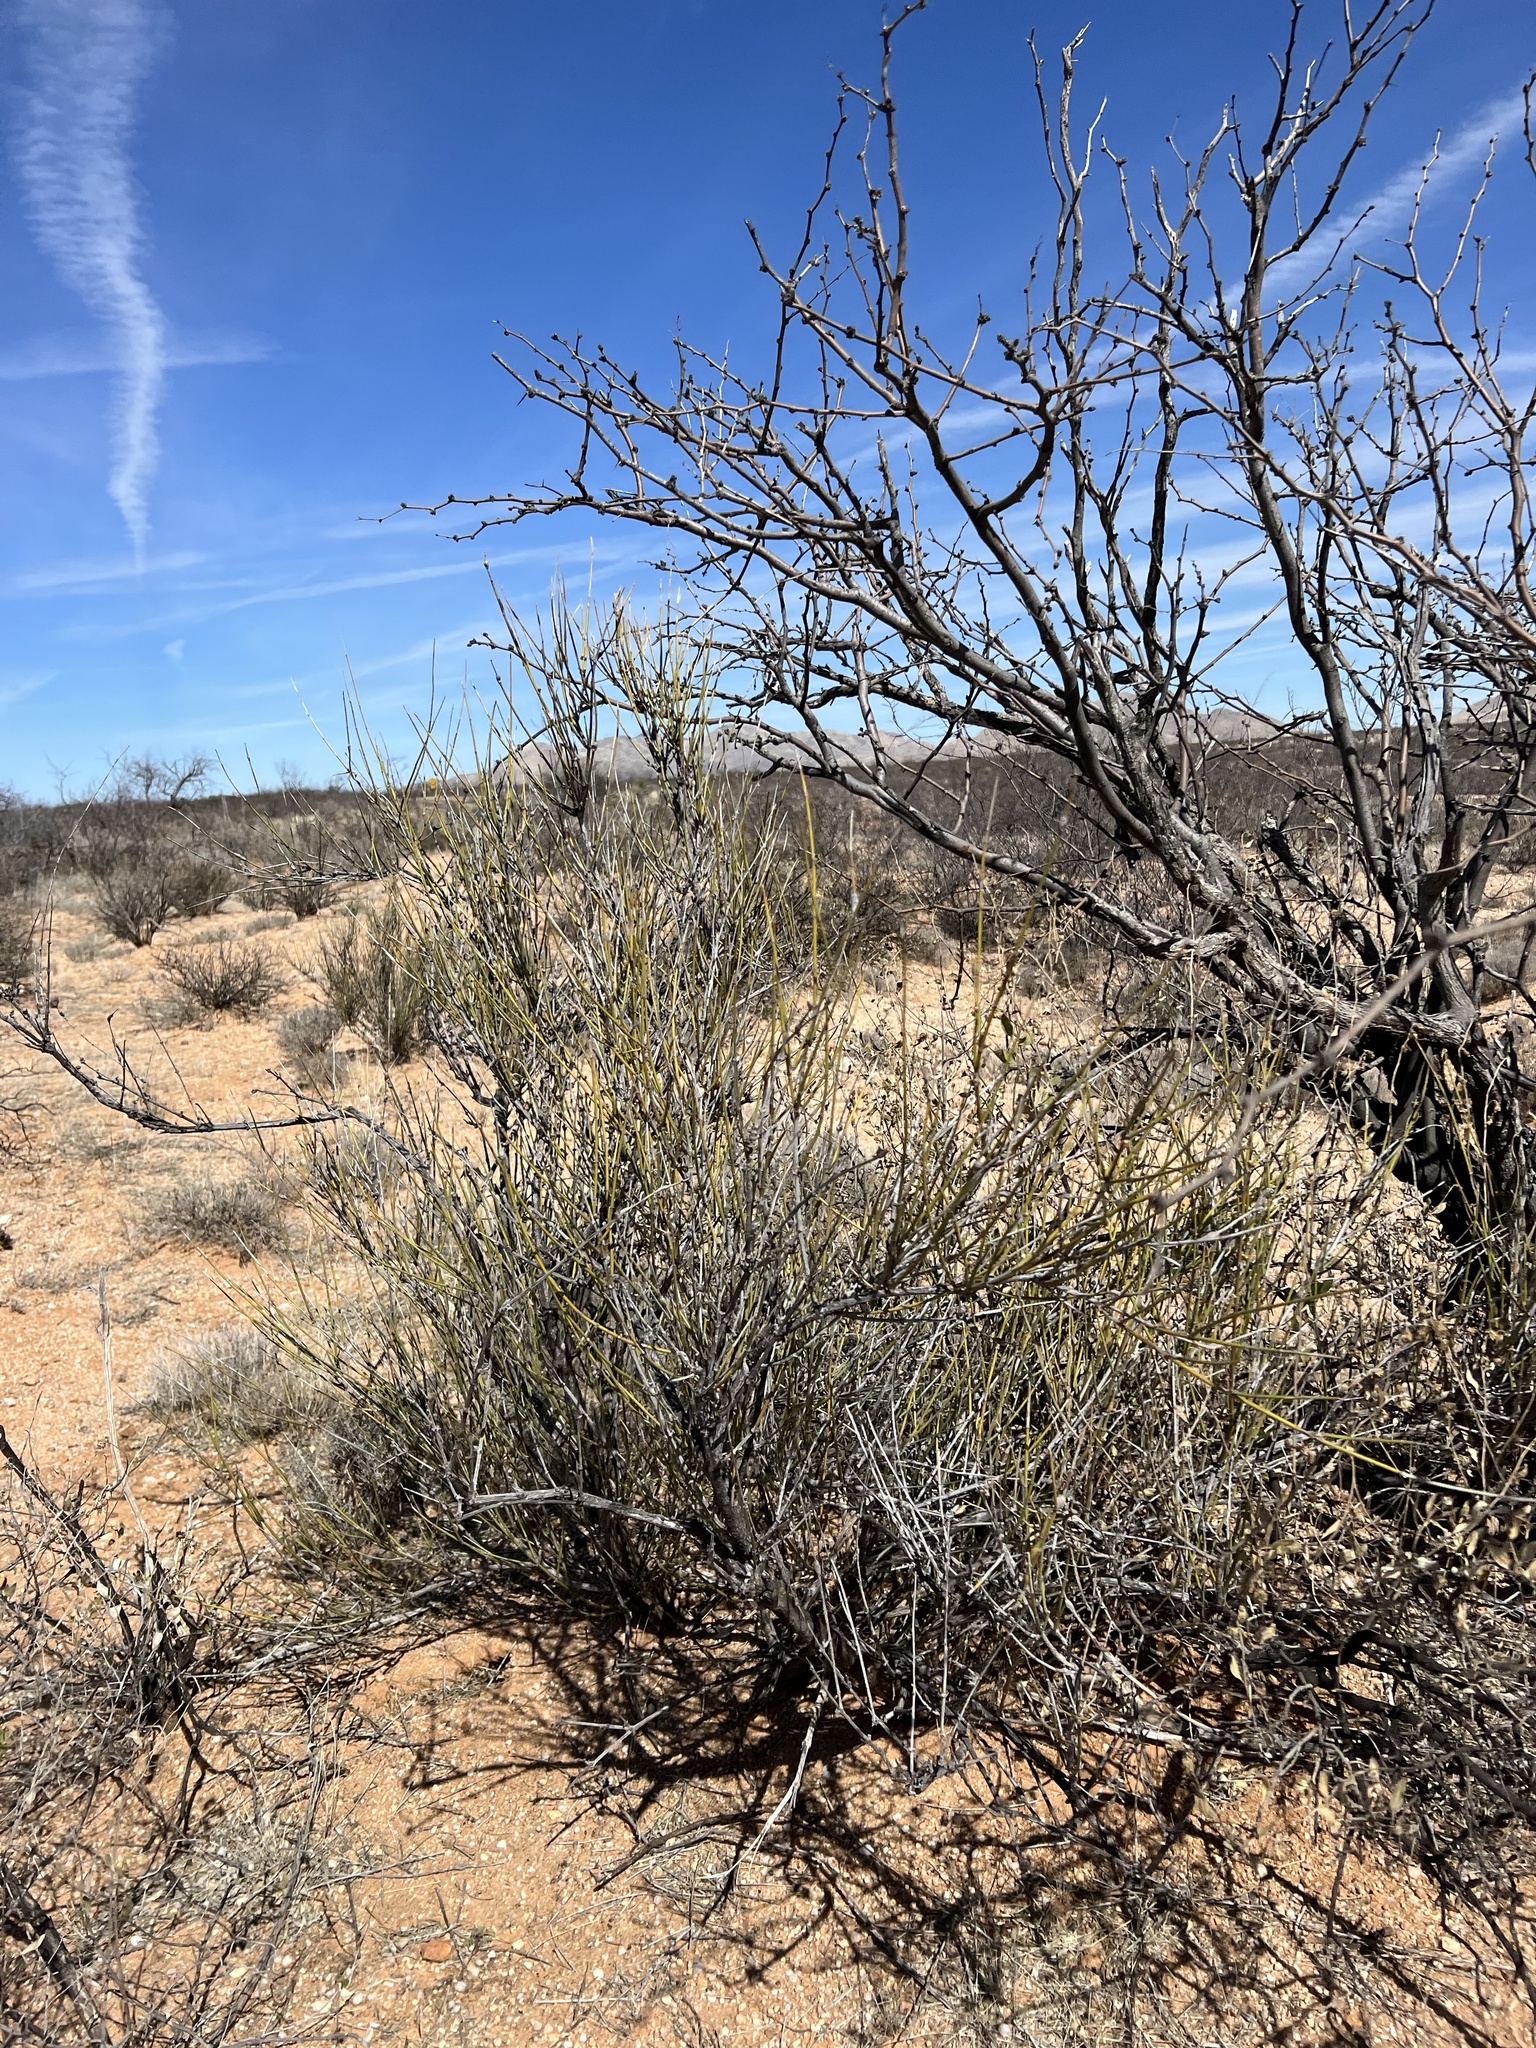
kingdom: Plantae
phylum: Tracheophyta
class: Gnetopsida
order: Ephedrales
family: Ephedraceae
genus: Ephedra
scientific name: Ephedra trifurca
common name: Mexican-tea
